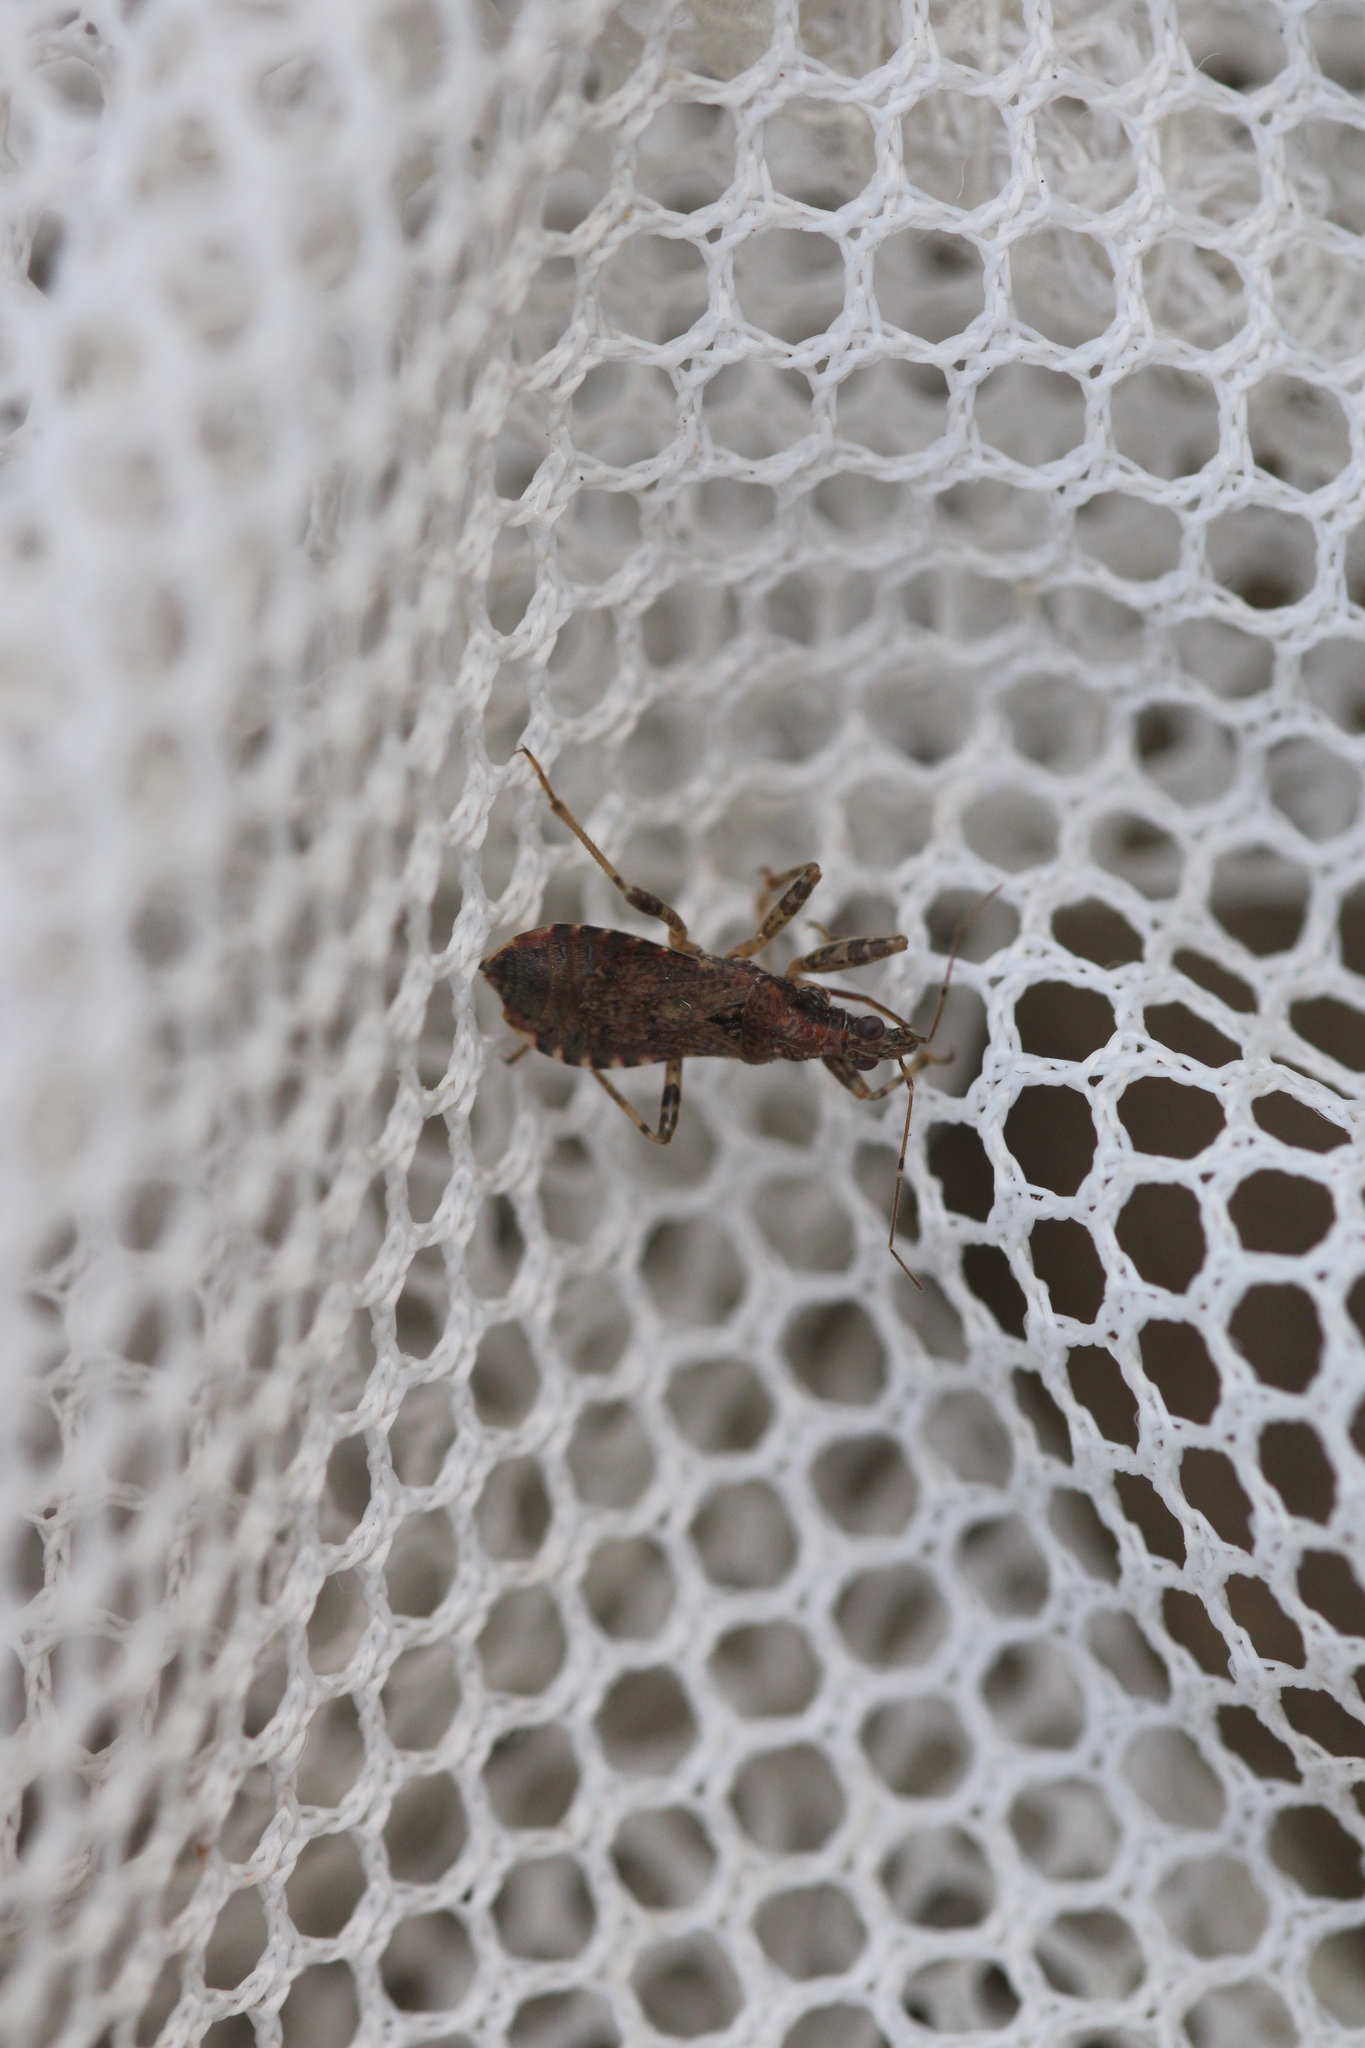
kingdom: Animalia
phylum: Arthropoda
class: Insecta
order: Hemiptera
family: Nabidae
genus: Himacerus
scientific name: Himacerus mirmicoides
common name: Ant damsel bug
